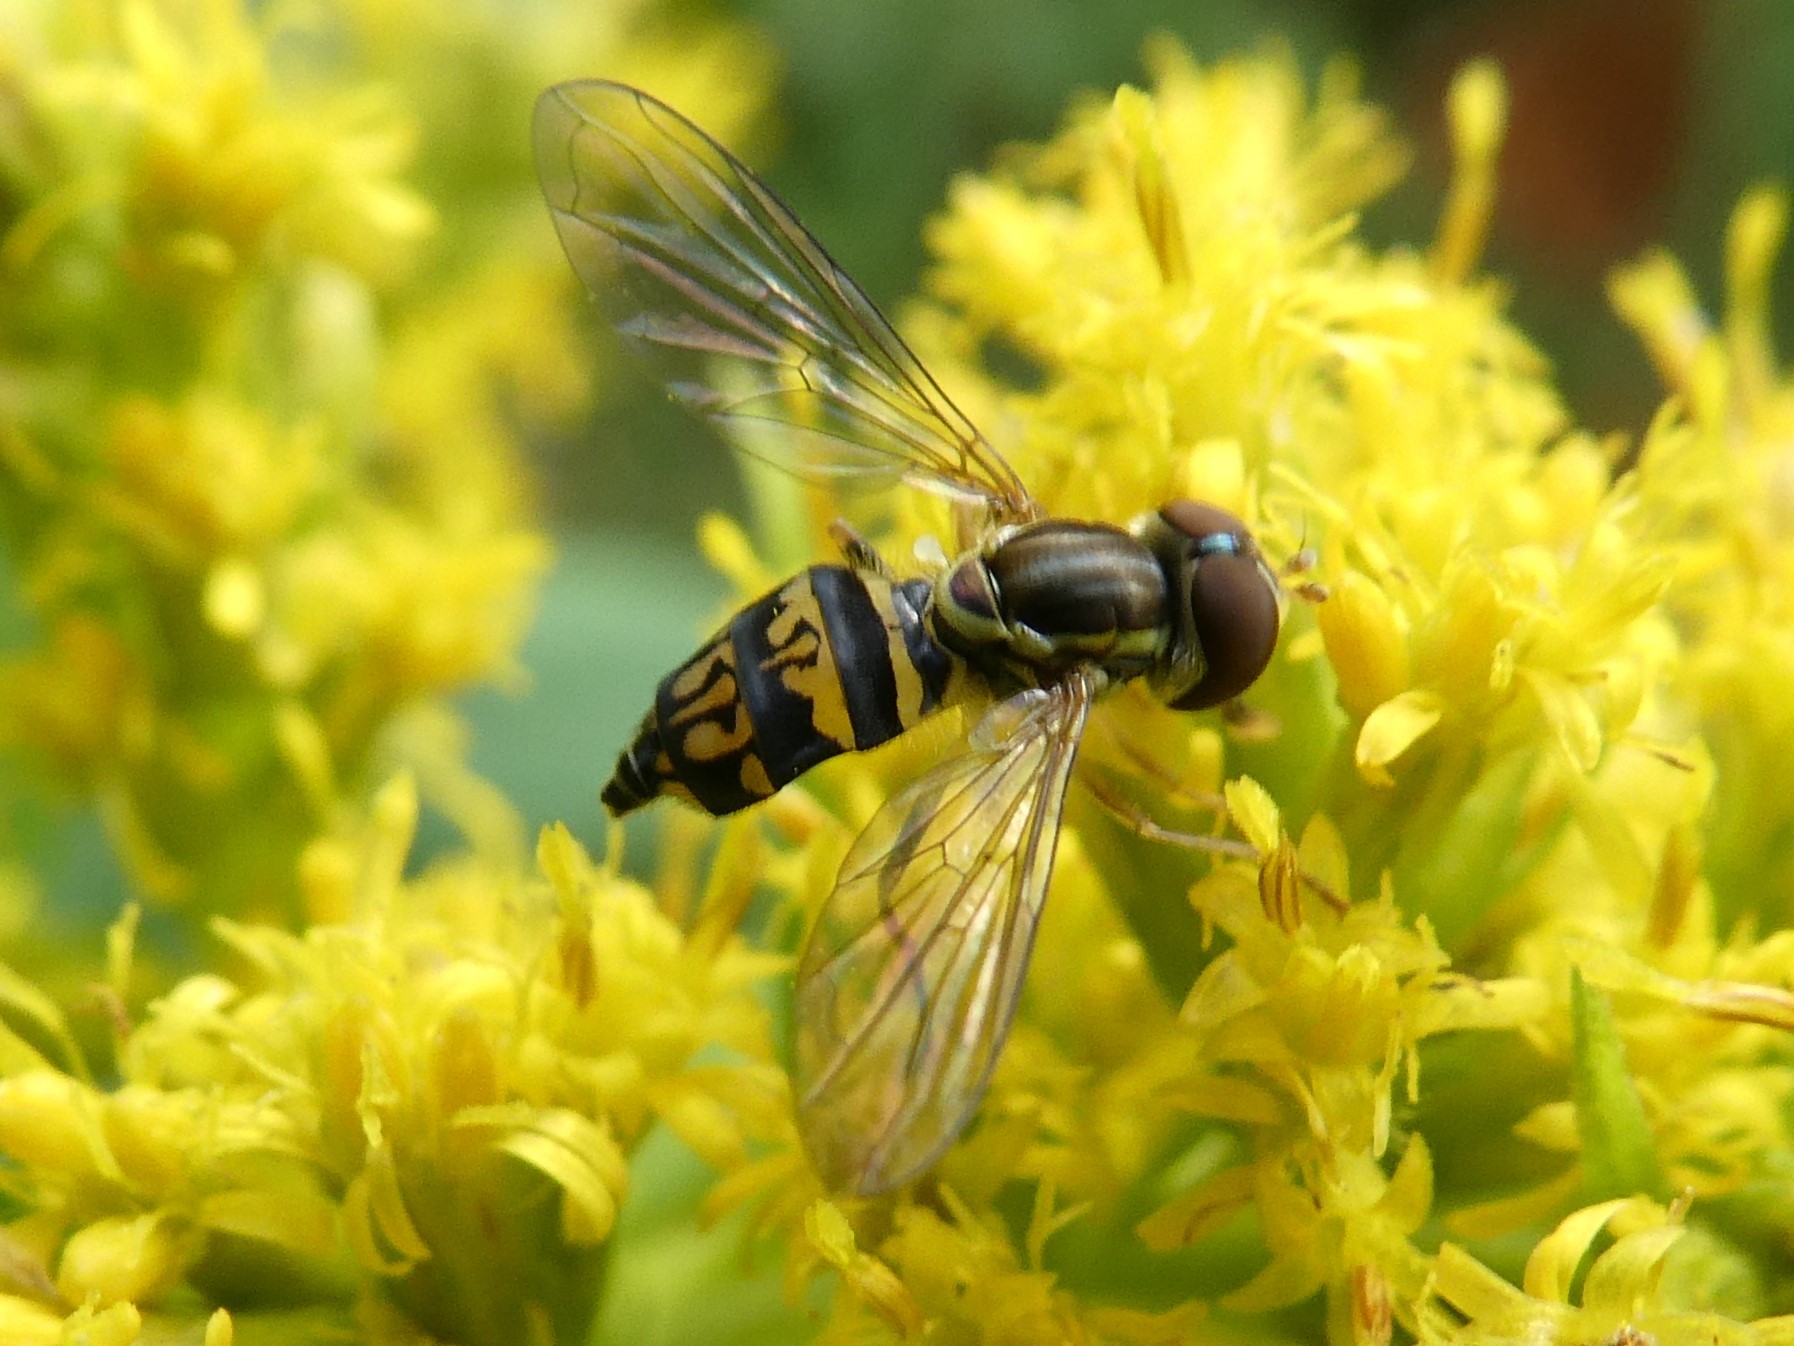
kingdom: Animalia
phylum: Arthropoda
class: Insecta
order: Diptera
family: Syrphidae
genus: Toxomerus
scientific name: Toxomerus geminatus
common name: Eastern calligrapher
